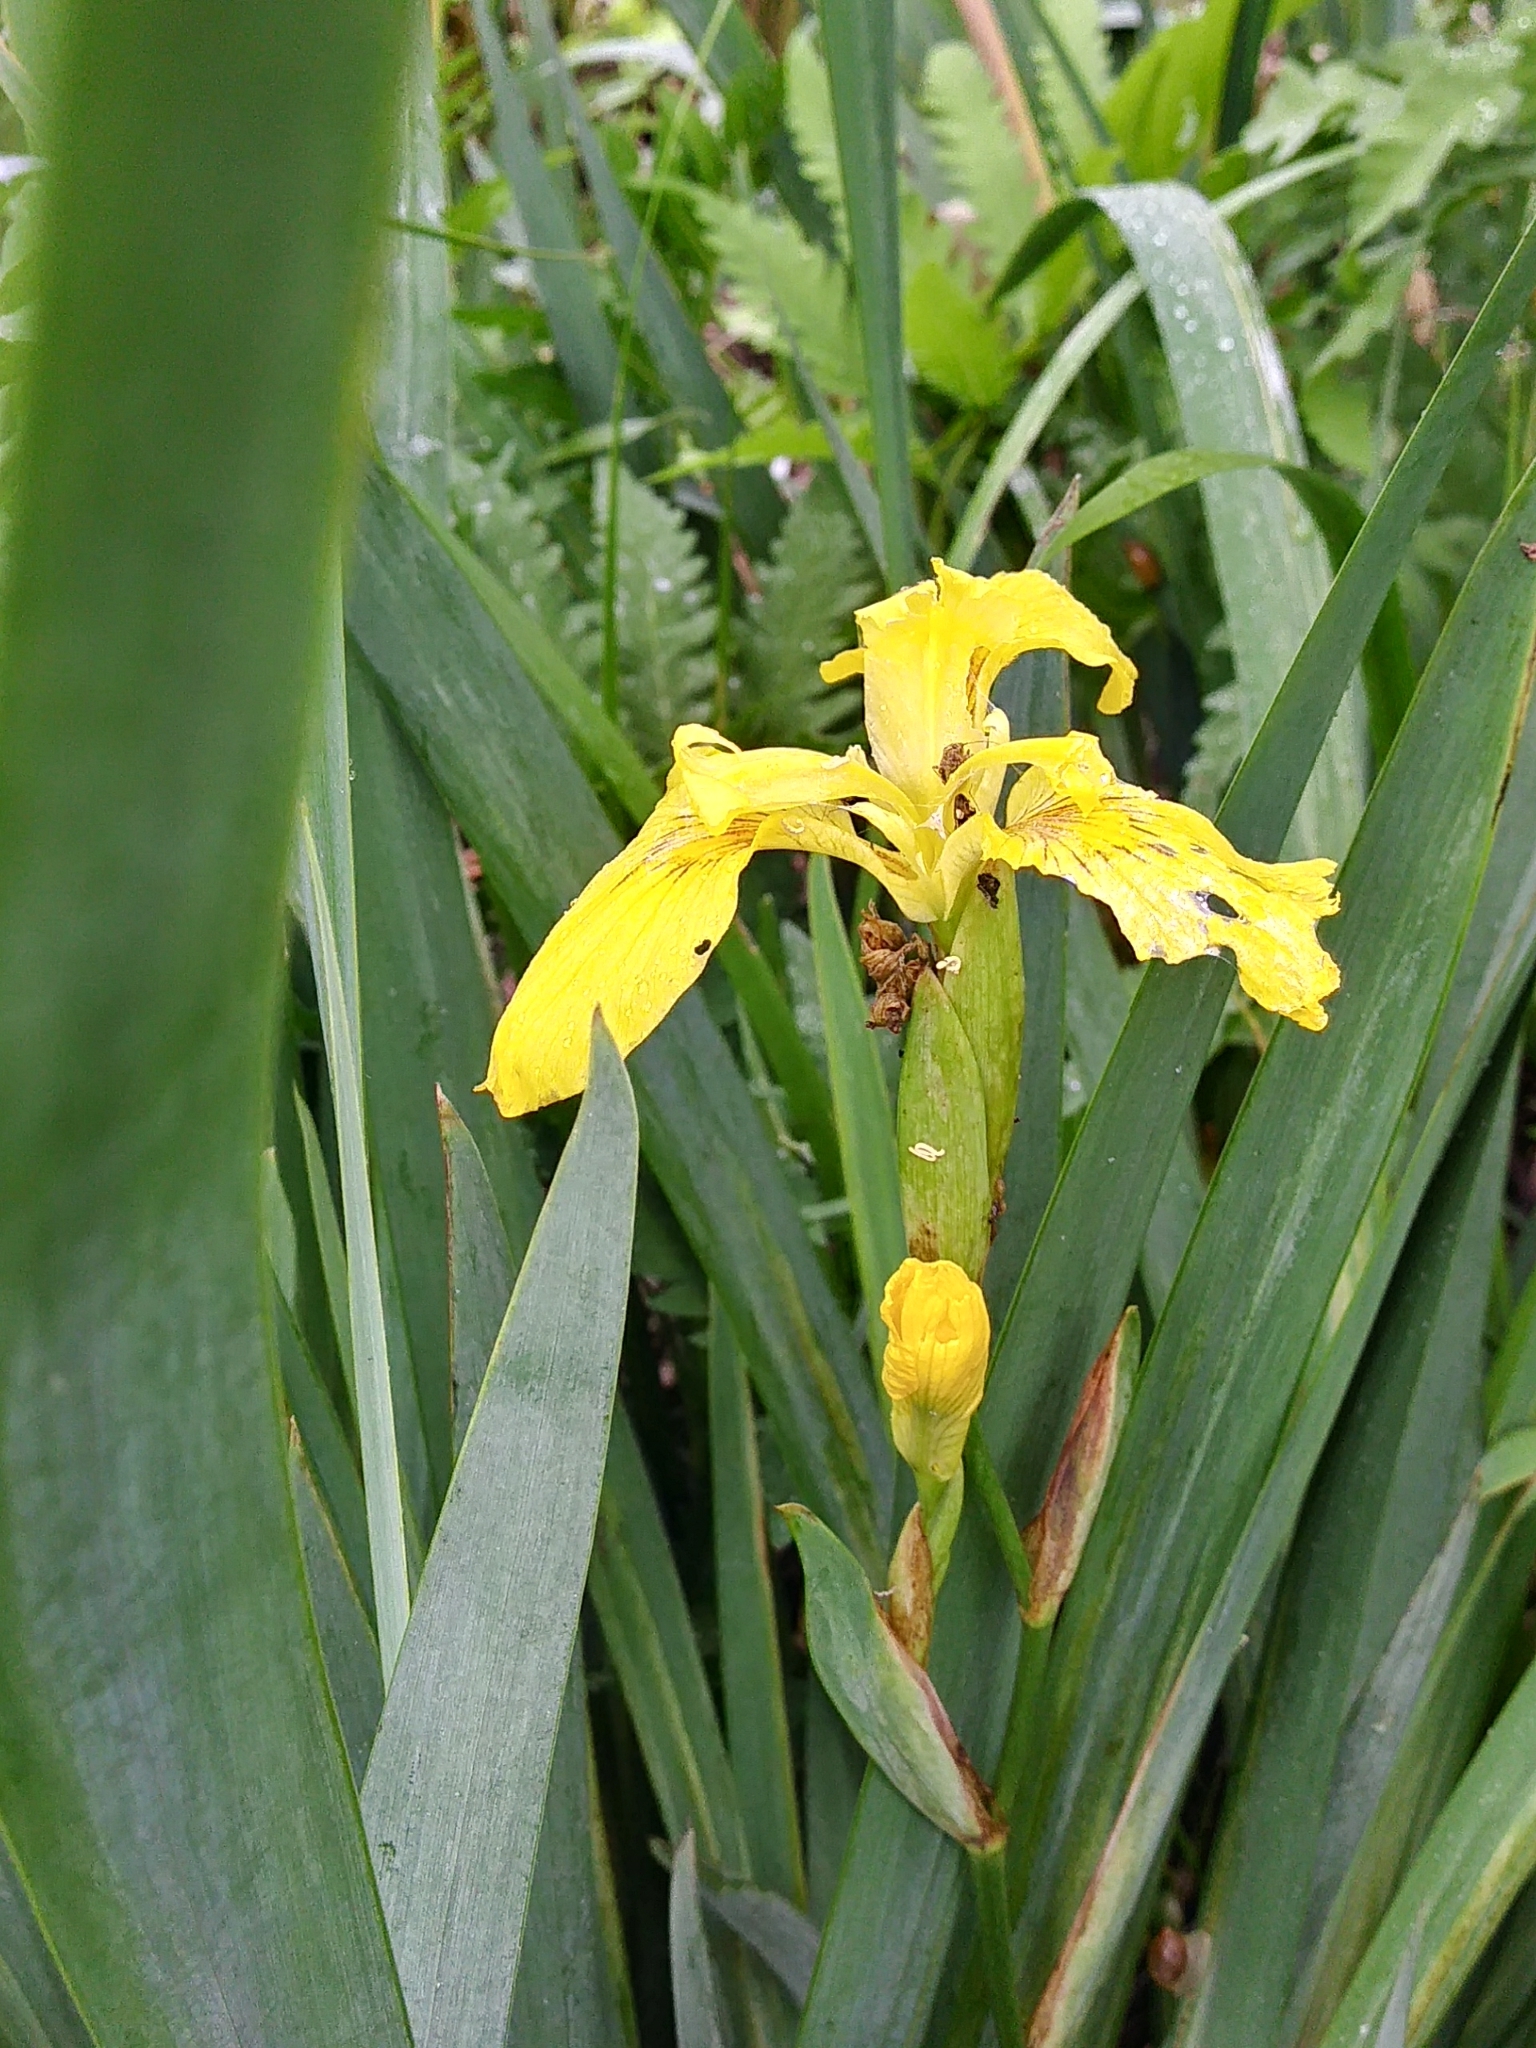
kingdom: Plantae
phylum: Tracheophyta
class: Liliopsida
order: Asparagales
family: Iridaceae
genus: Iris
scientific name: Iris pseudacorus
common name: Yellow flag
